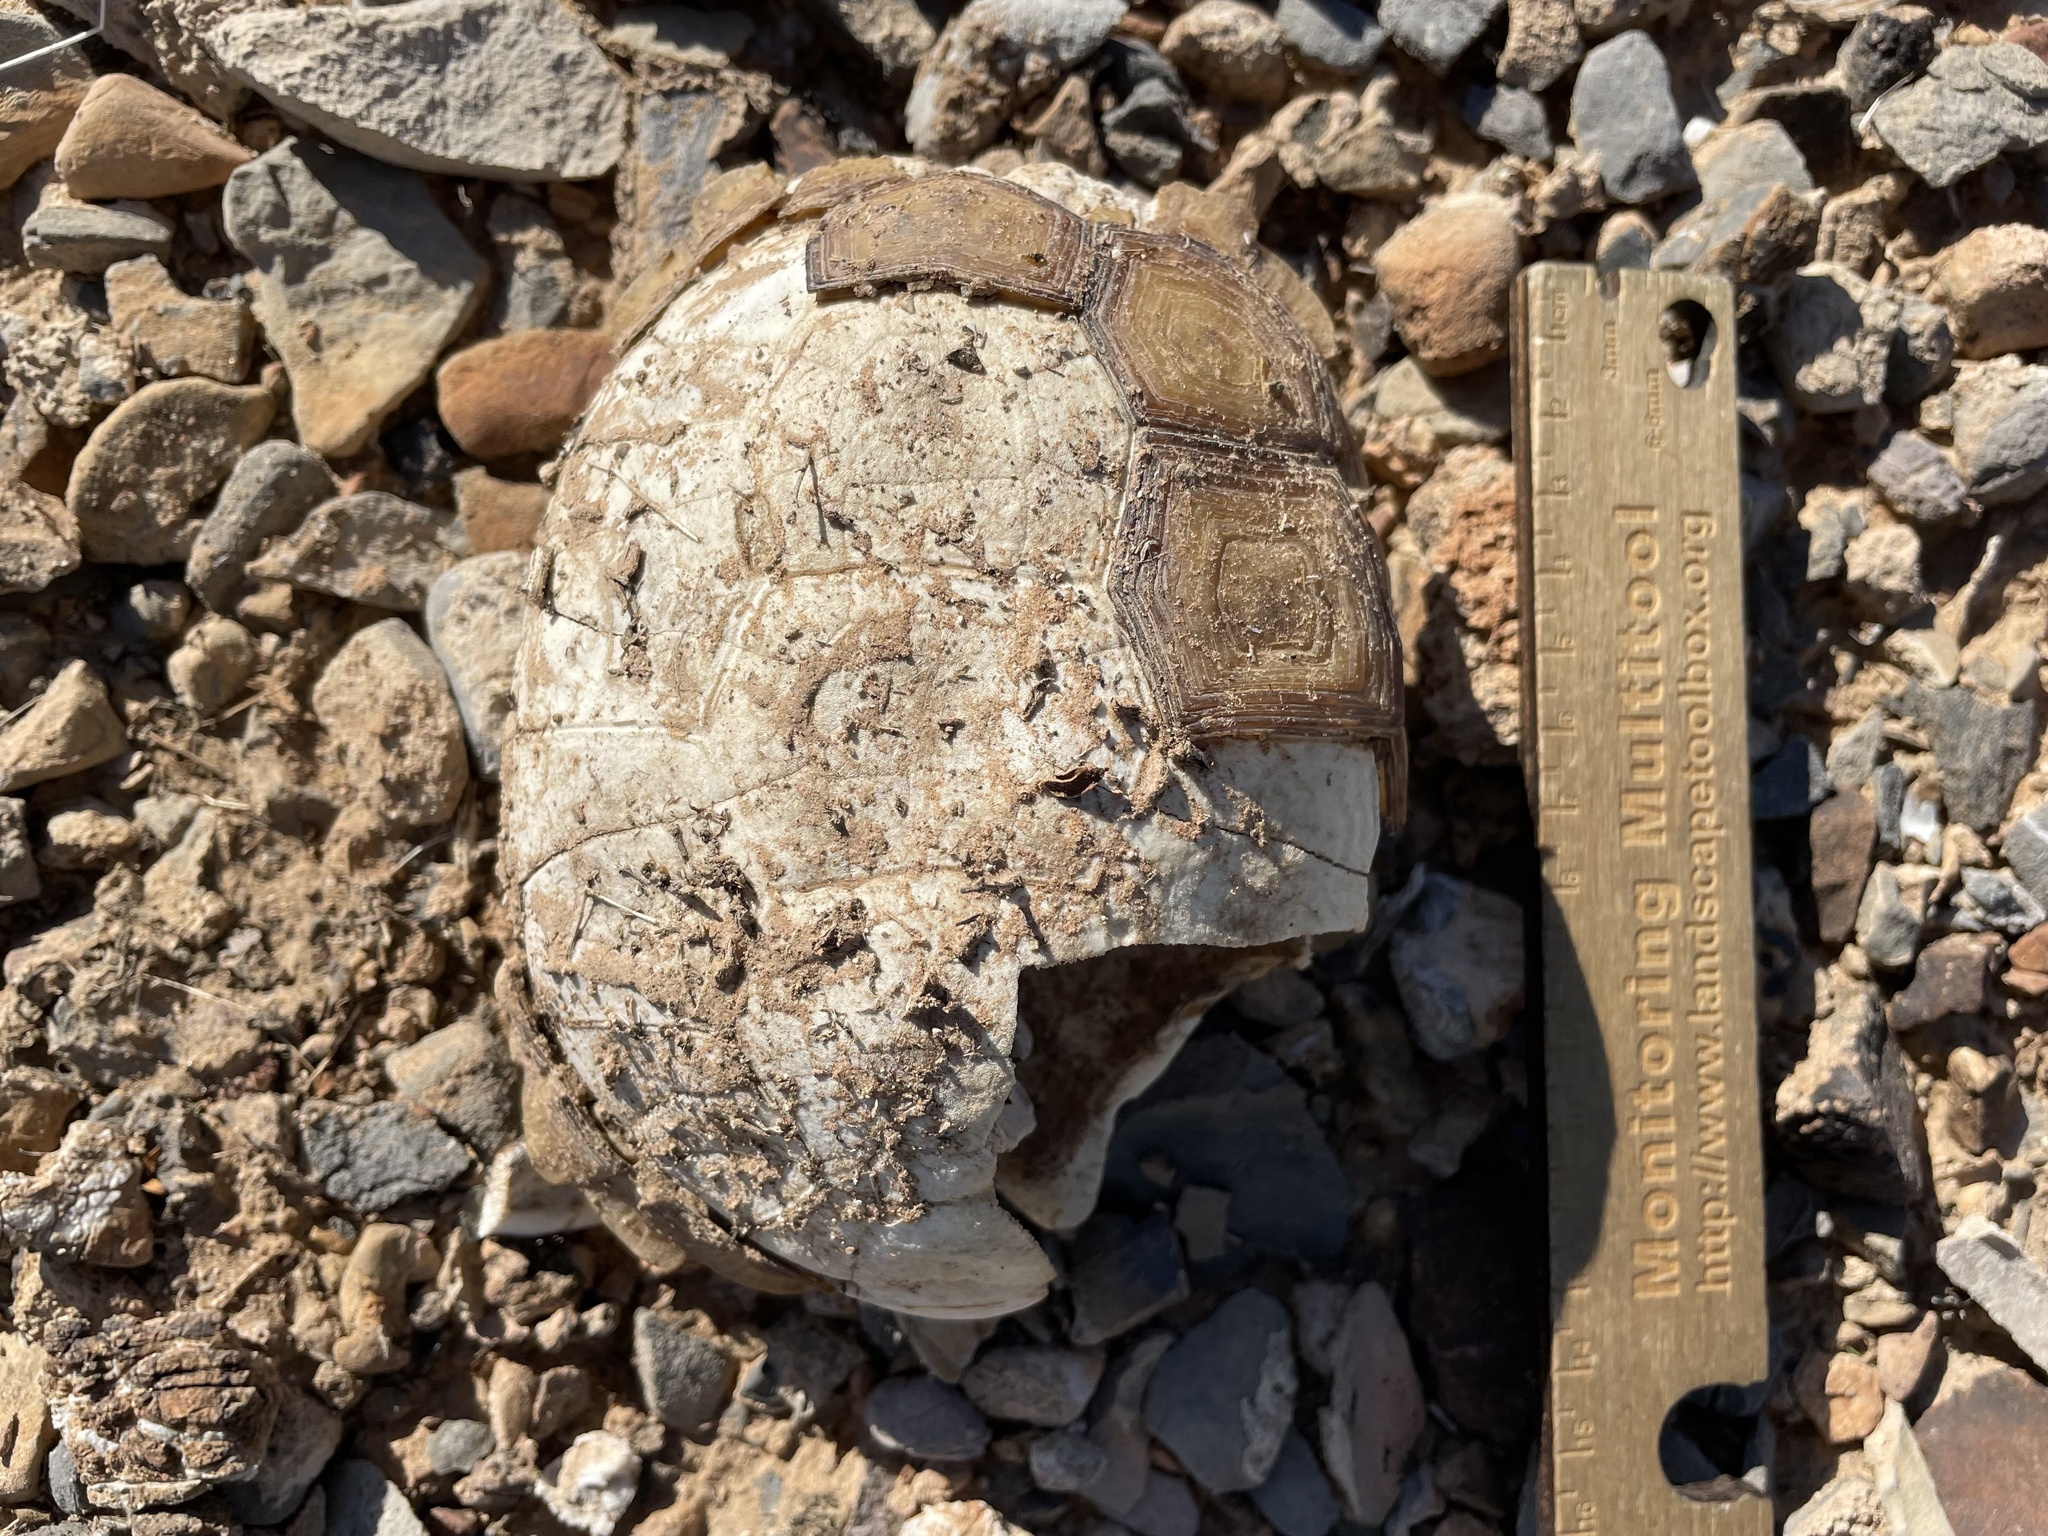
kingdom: Animalia
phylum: Chordata
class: Testudines
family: Testudinidae
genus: Gopherus
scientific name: Gopherus agassizii
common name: Mojave desert tortoise
